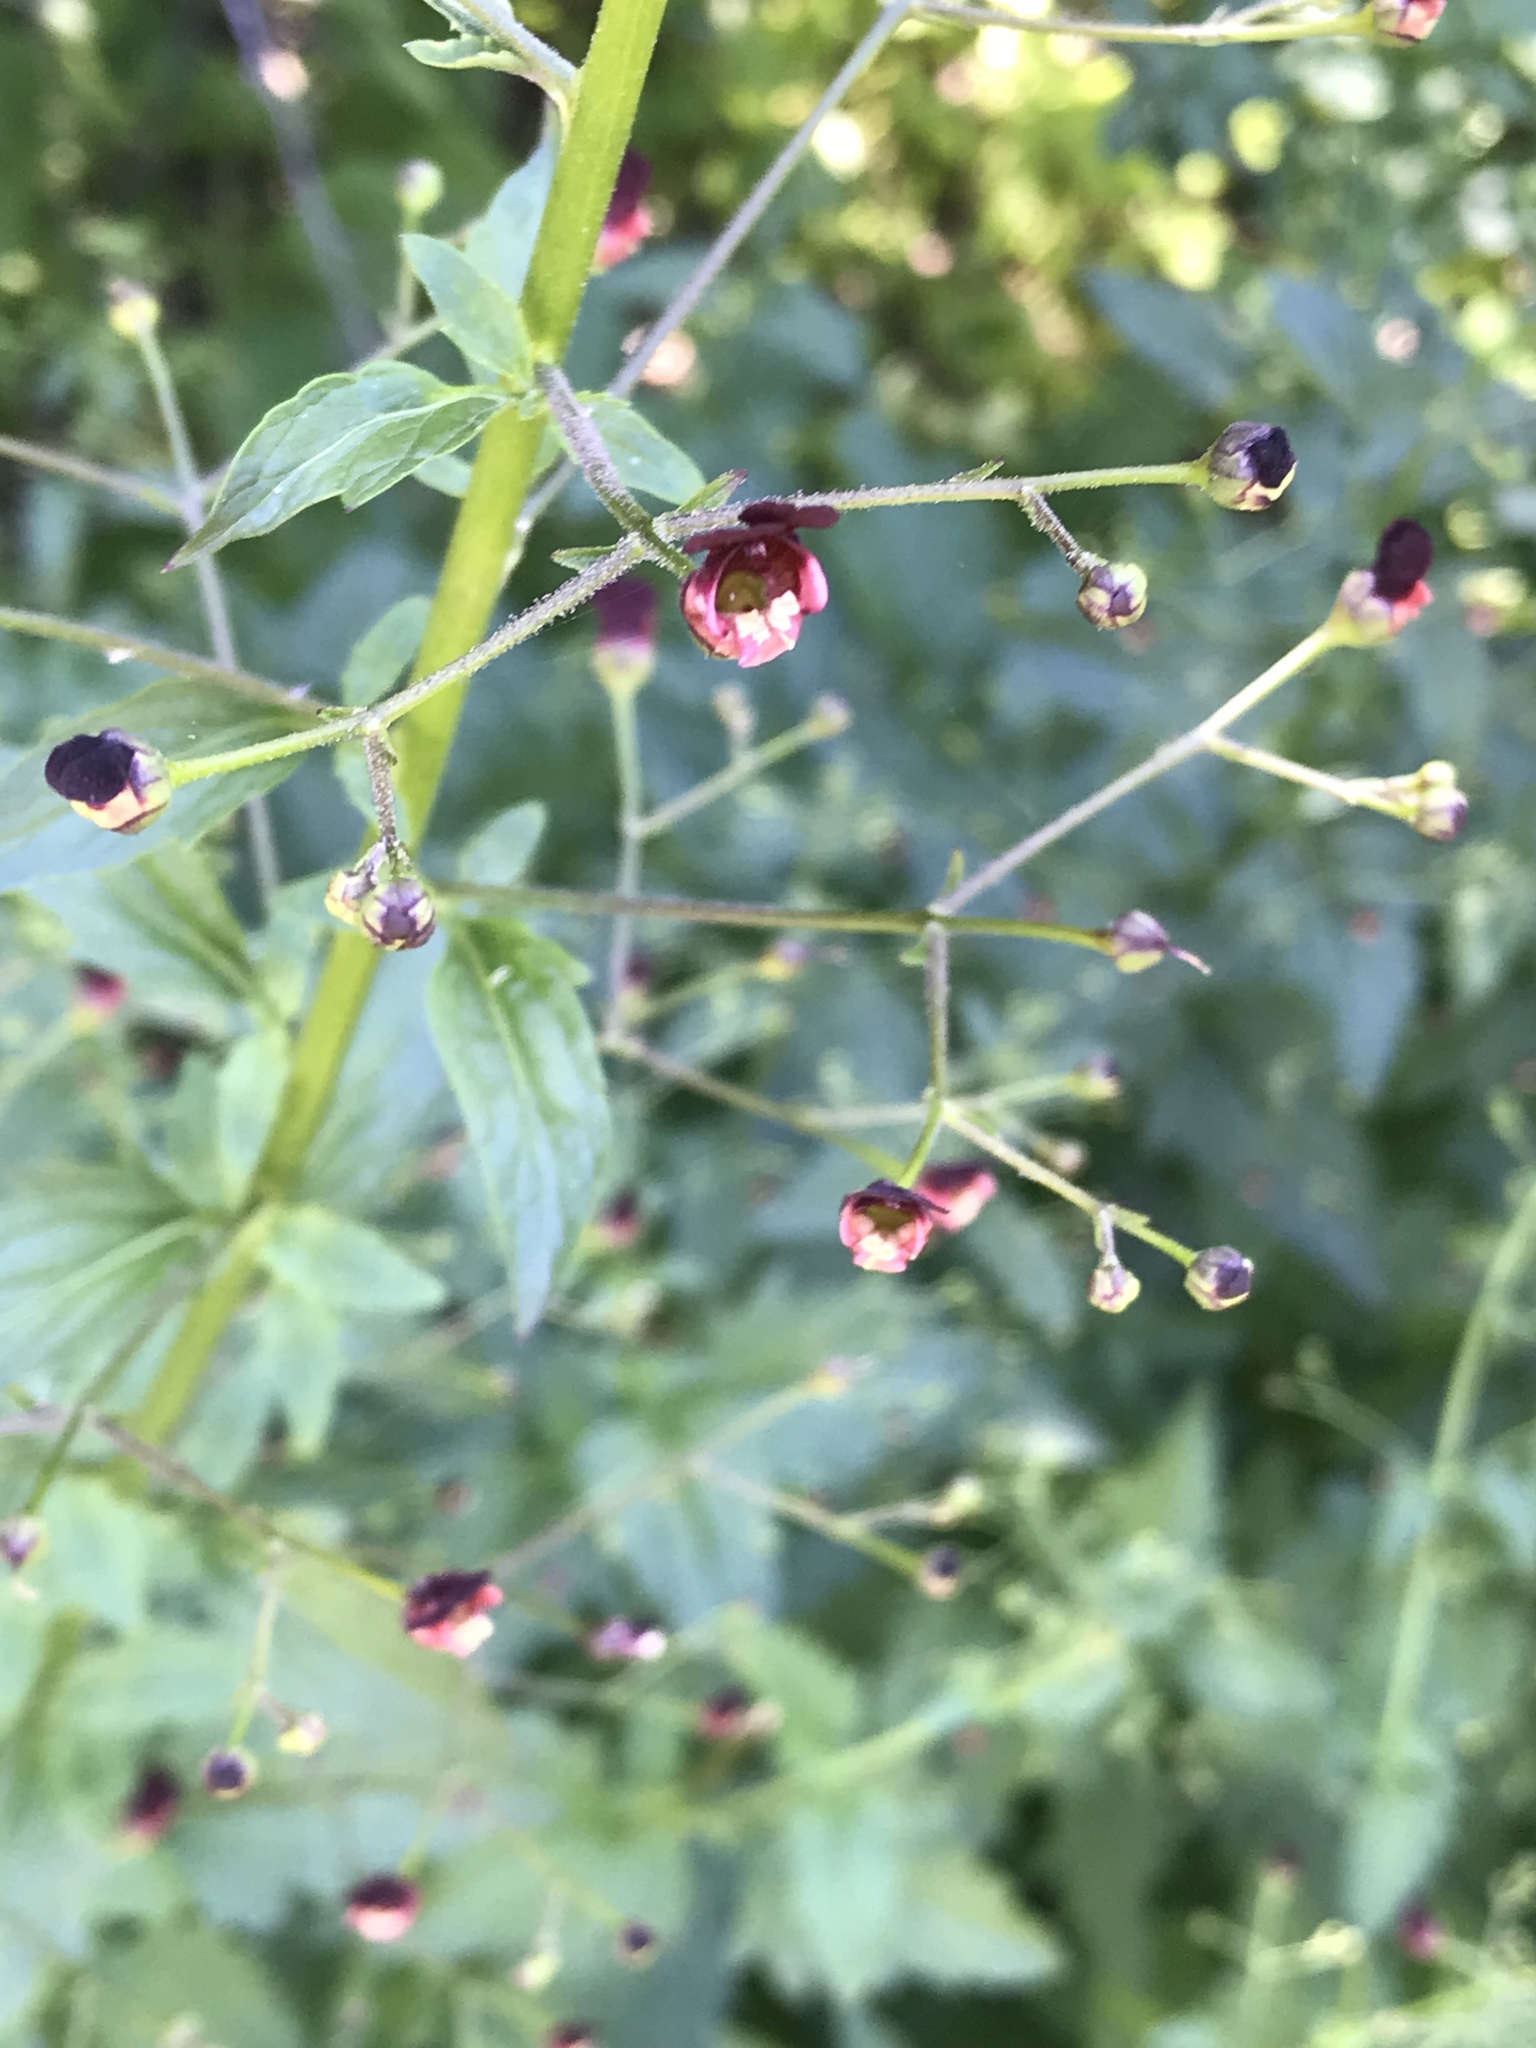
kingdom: Plantae
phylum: Tracheophyta
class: Magnoliopsida
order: Lamiales
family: Scrophulariaceae
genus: Scrophularia
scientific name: Scrophularia californica
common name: California figwort
